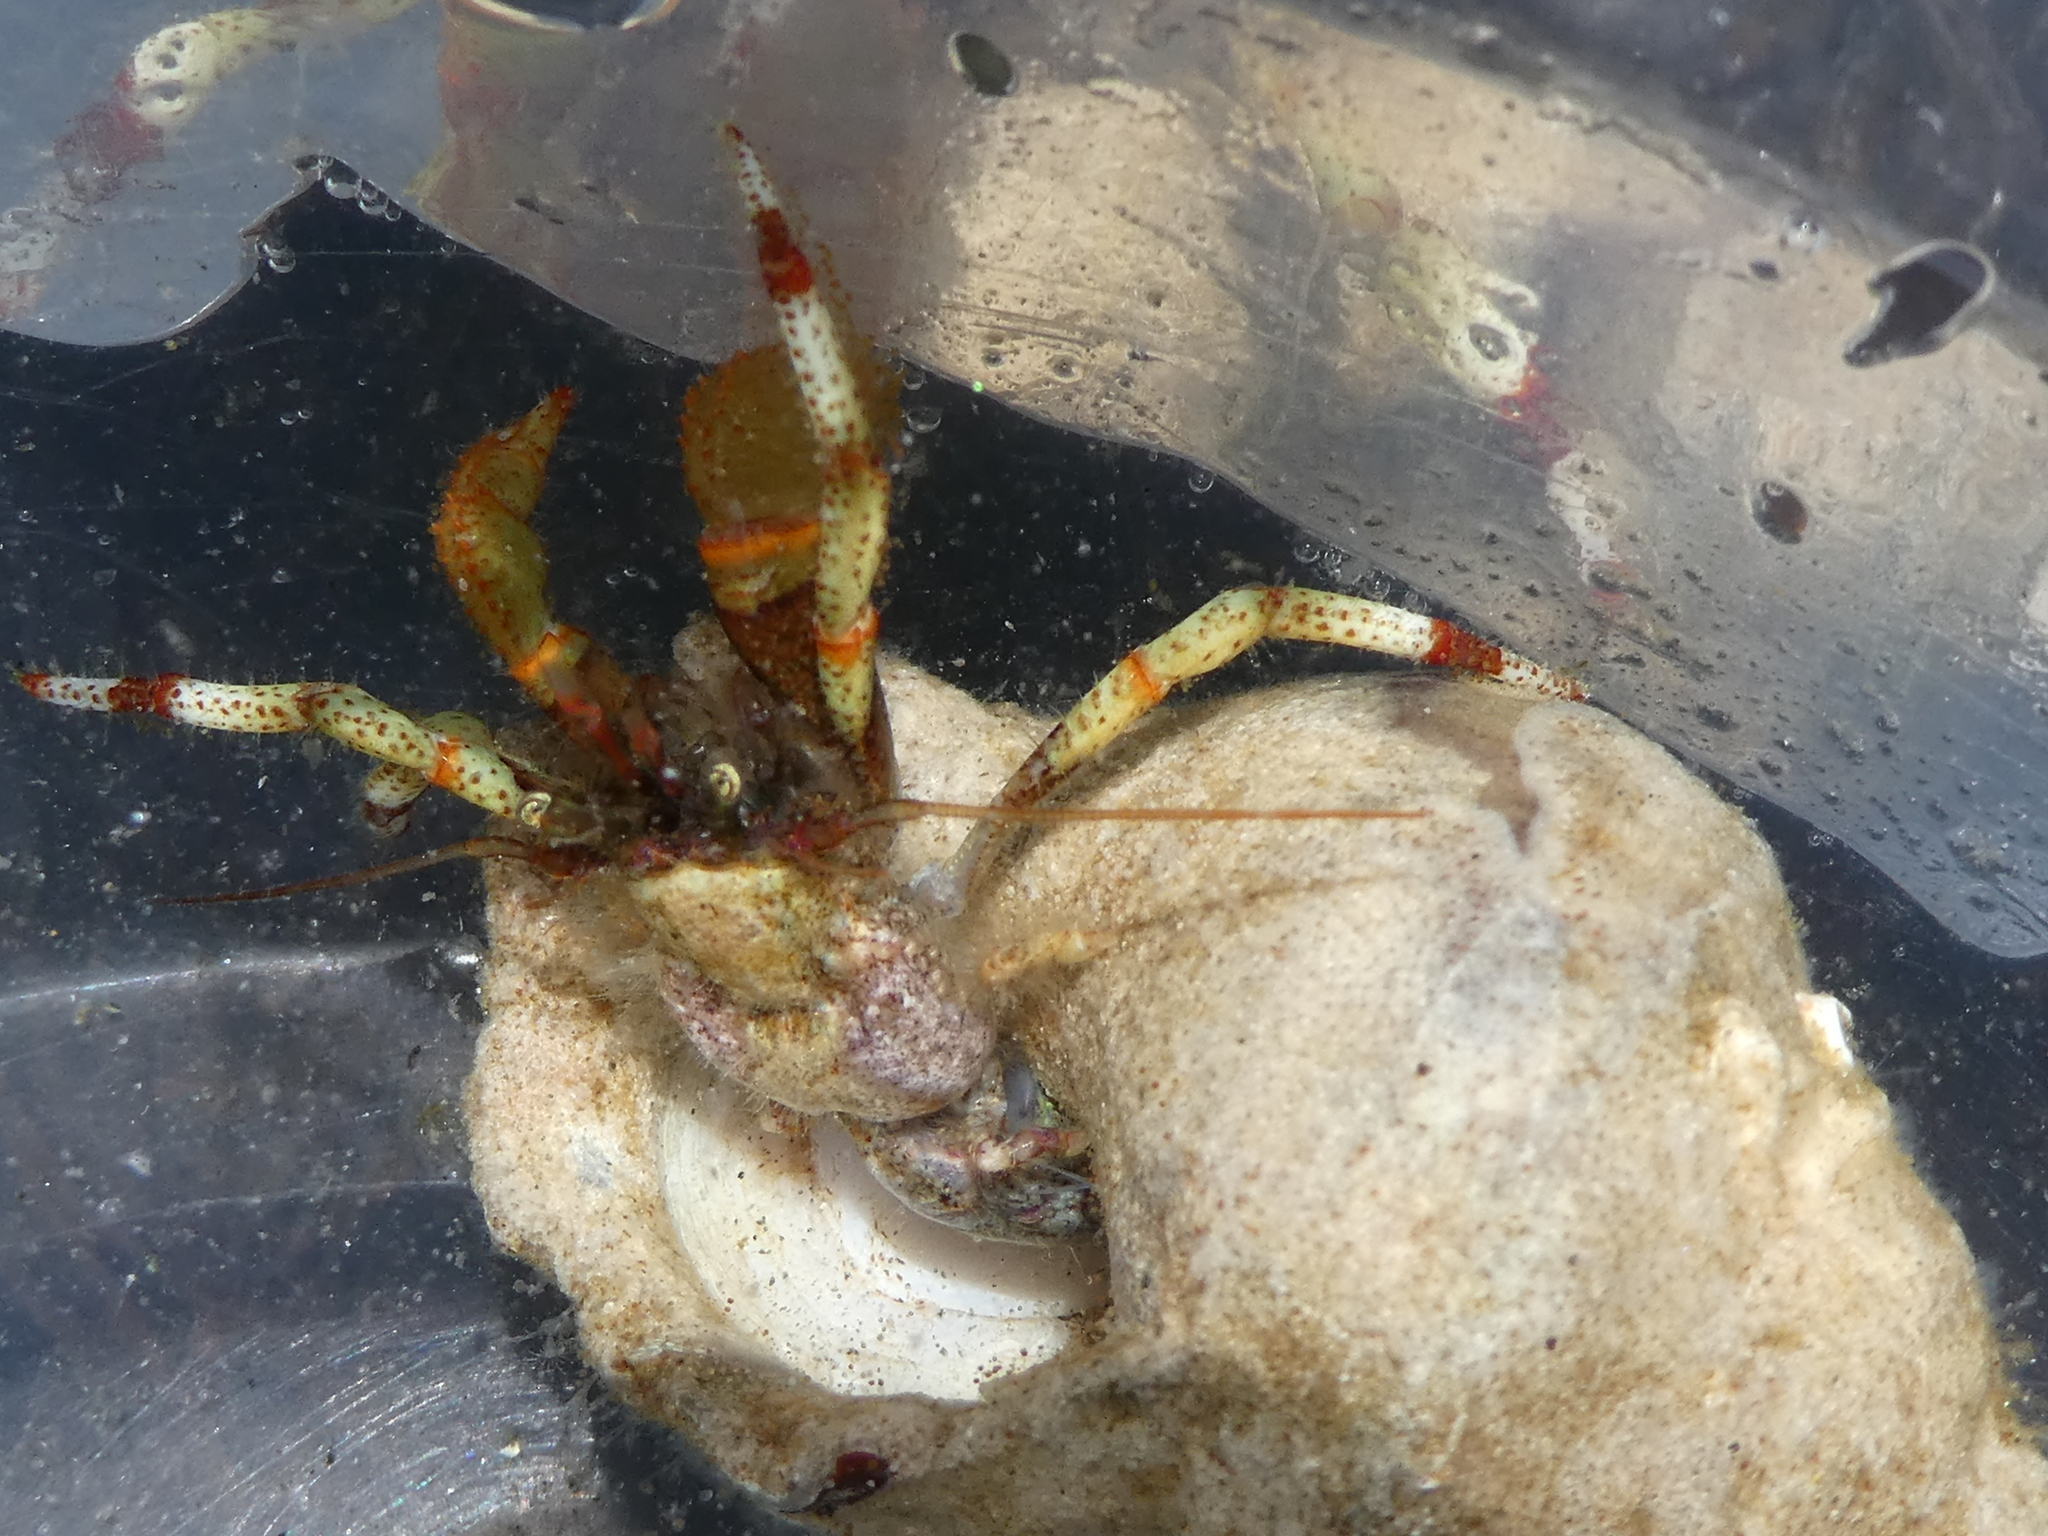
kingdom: Animalia
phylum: Arthropoda
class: Malacostraca
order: Decapoda
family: Paguridae
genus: Pagurus
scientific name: Pagurus beringanus
